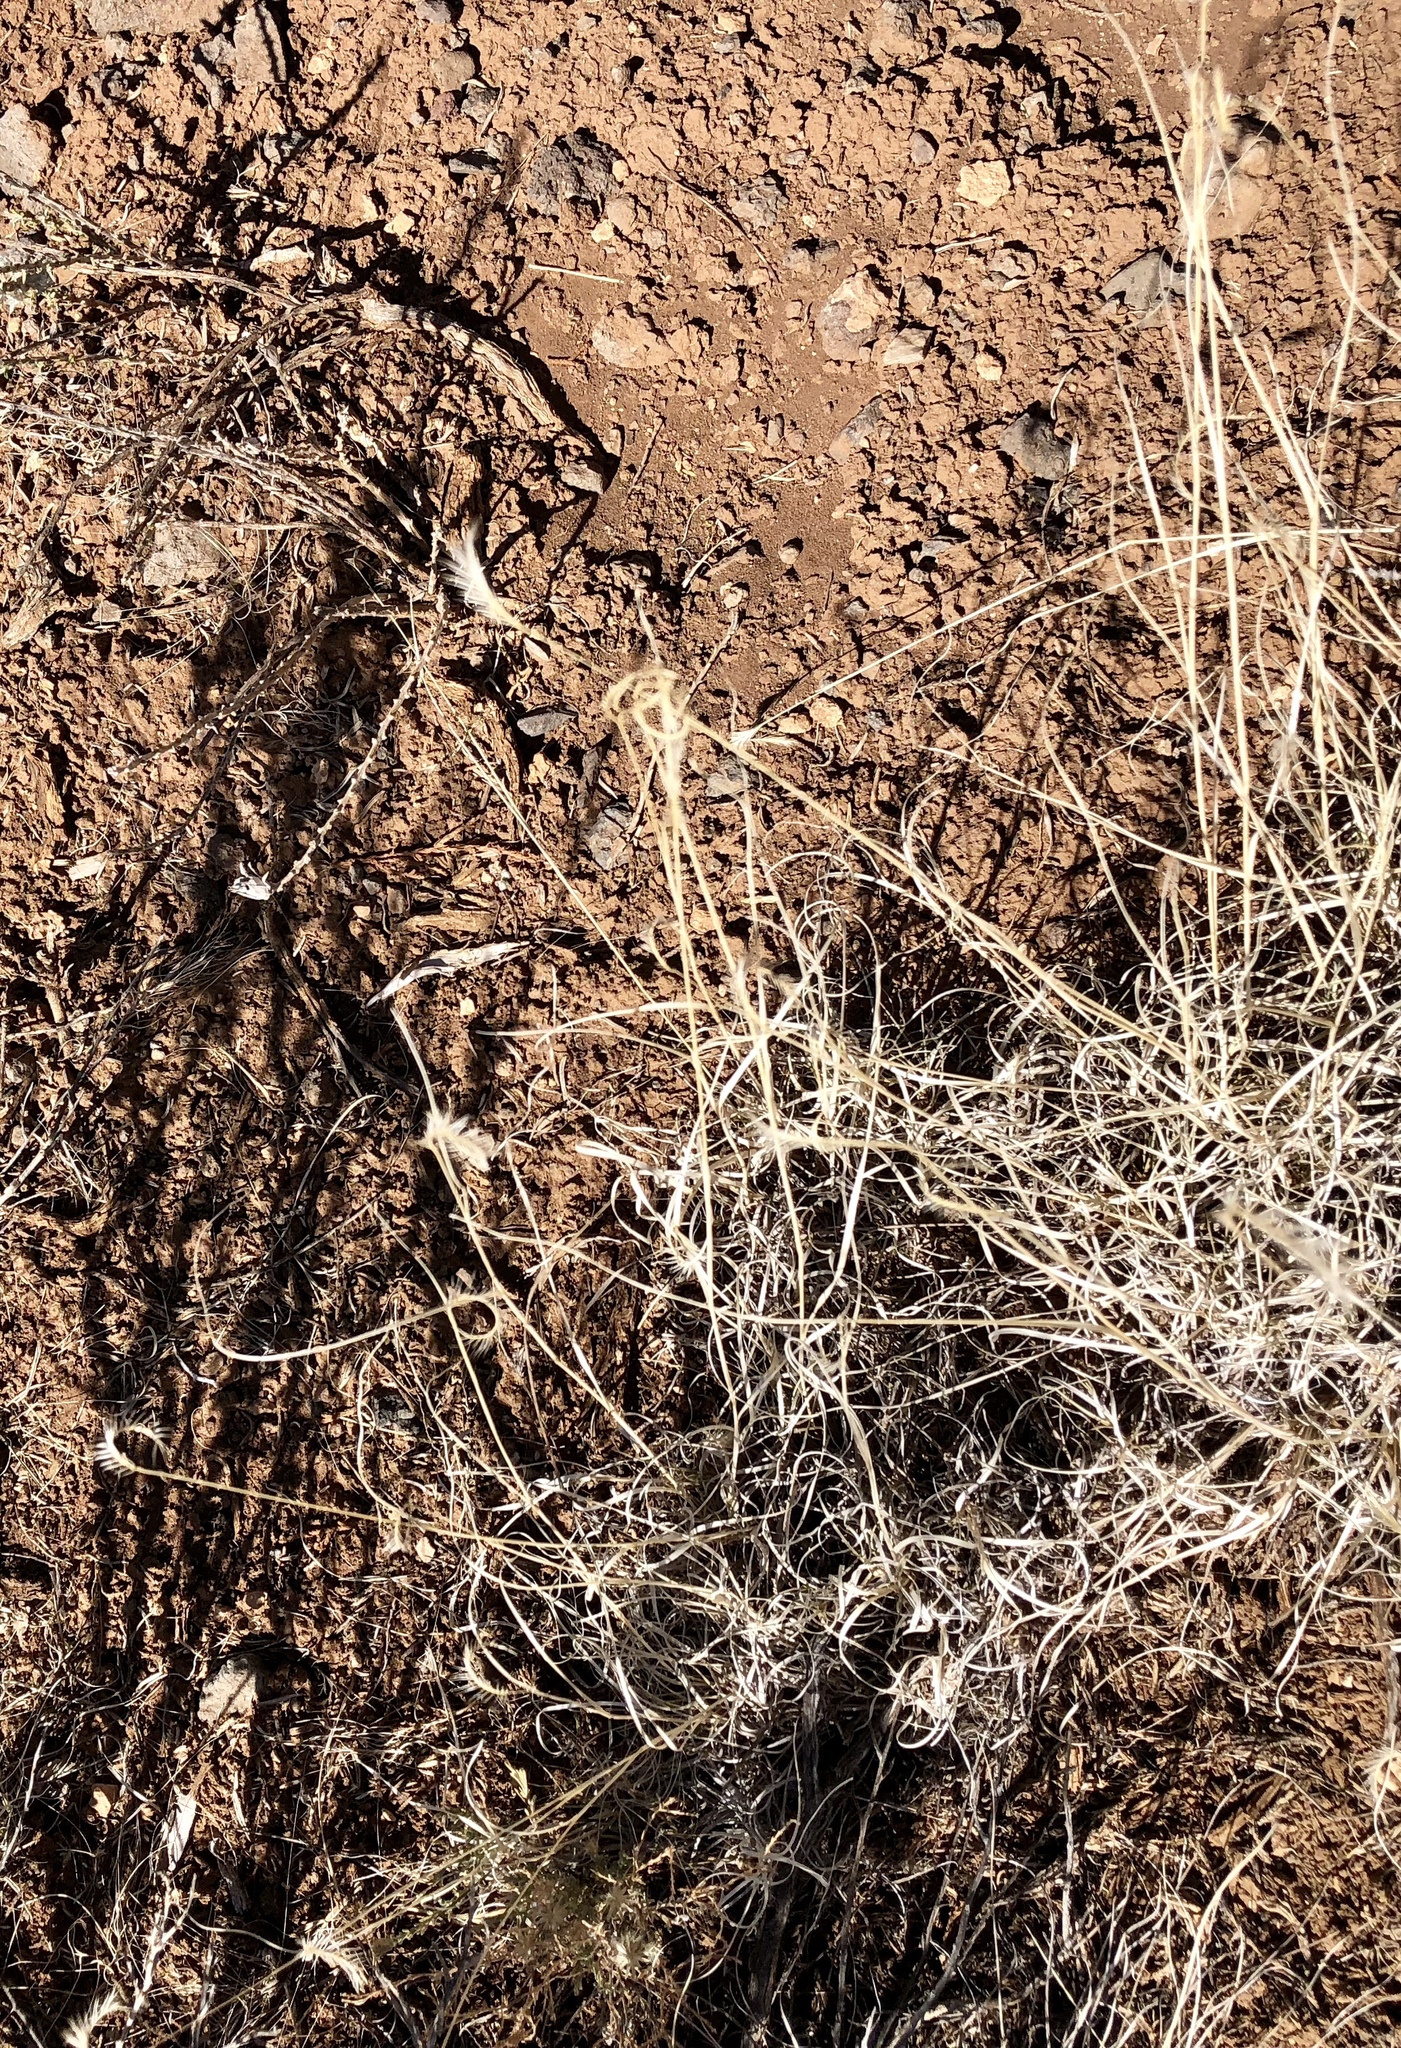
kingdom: Plantae
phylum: Tracheophyta
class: Liliopsida
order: Poales
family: Poaceae
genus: Bouteloua
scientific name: Bouteloua gracilis
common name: Blue grama
